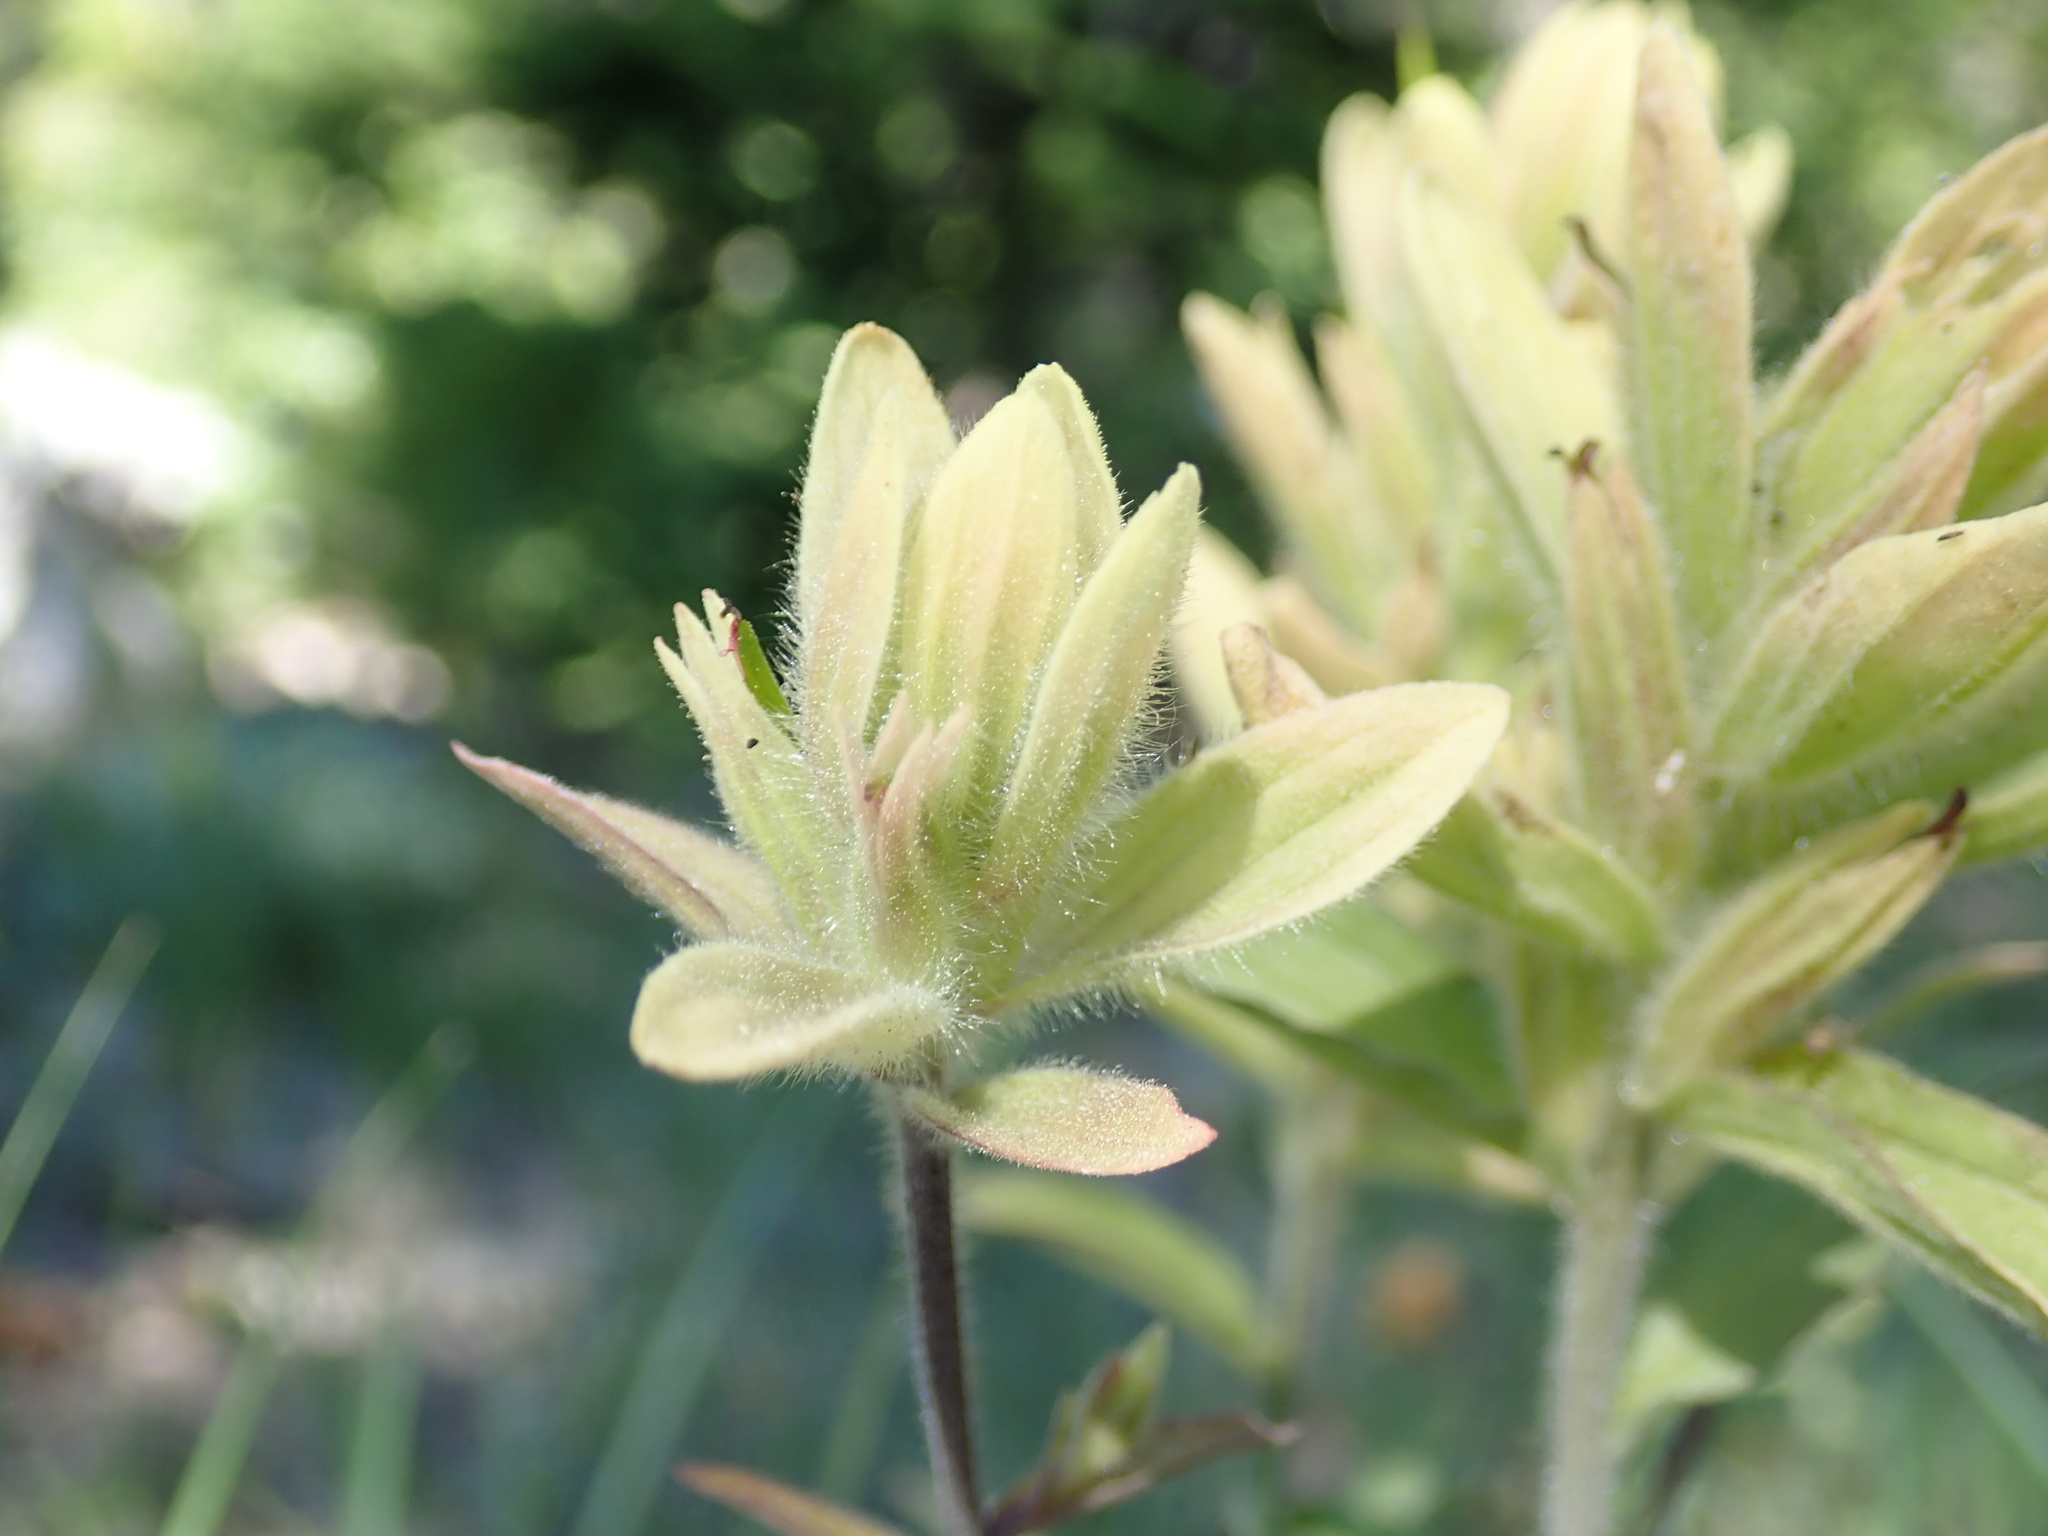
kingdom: Plantae
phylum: Tracheophyta
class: Magnoliopsida
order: Lamiales
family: Orobanchaceae
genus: Castilleja
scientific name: Castilleja elmeri
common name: Elmer's paintbrush
